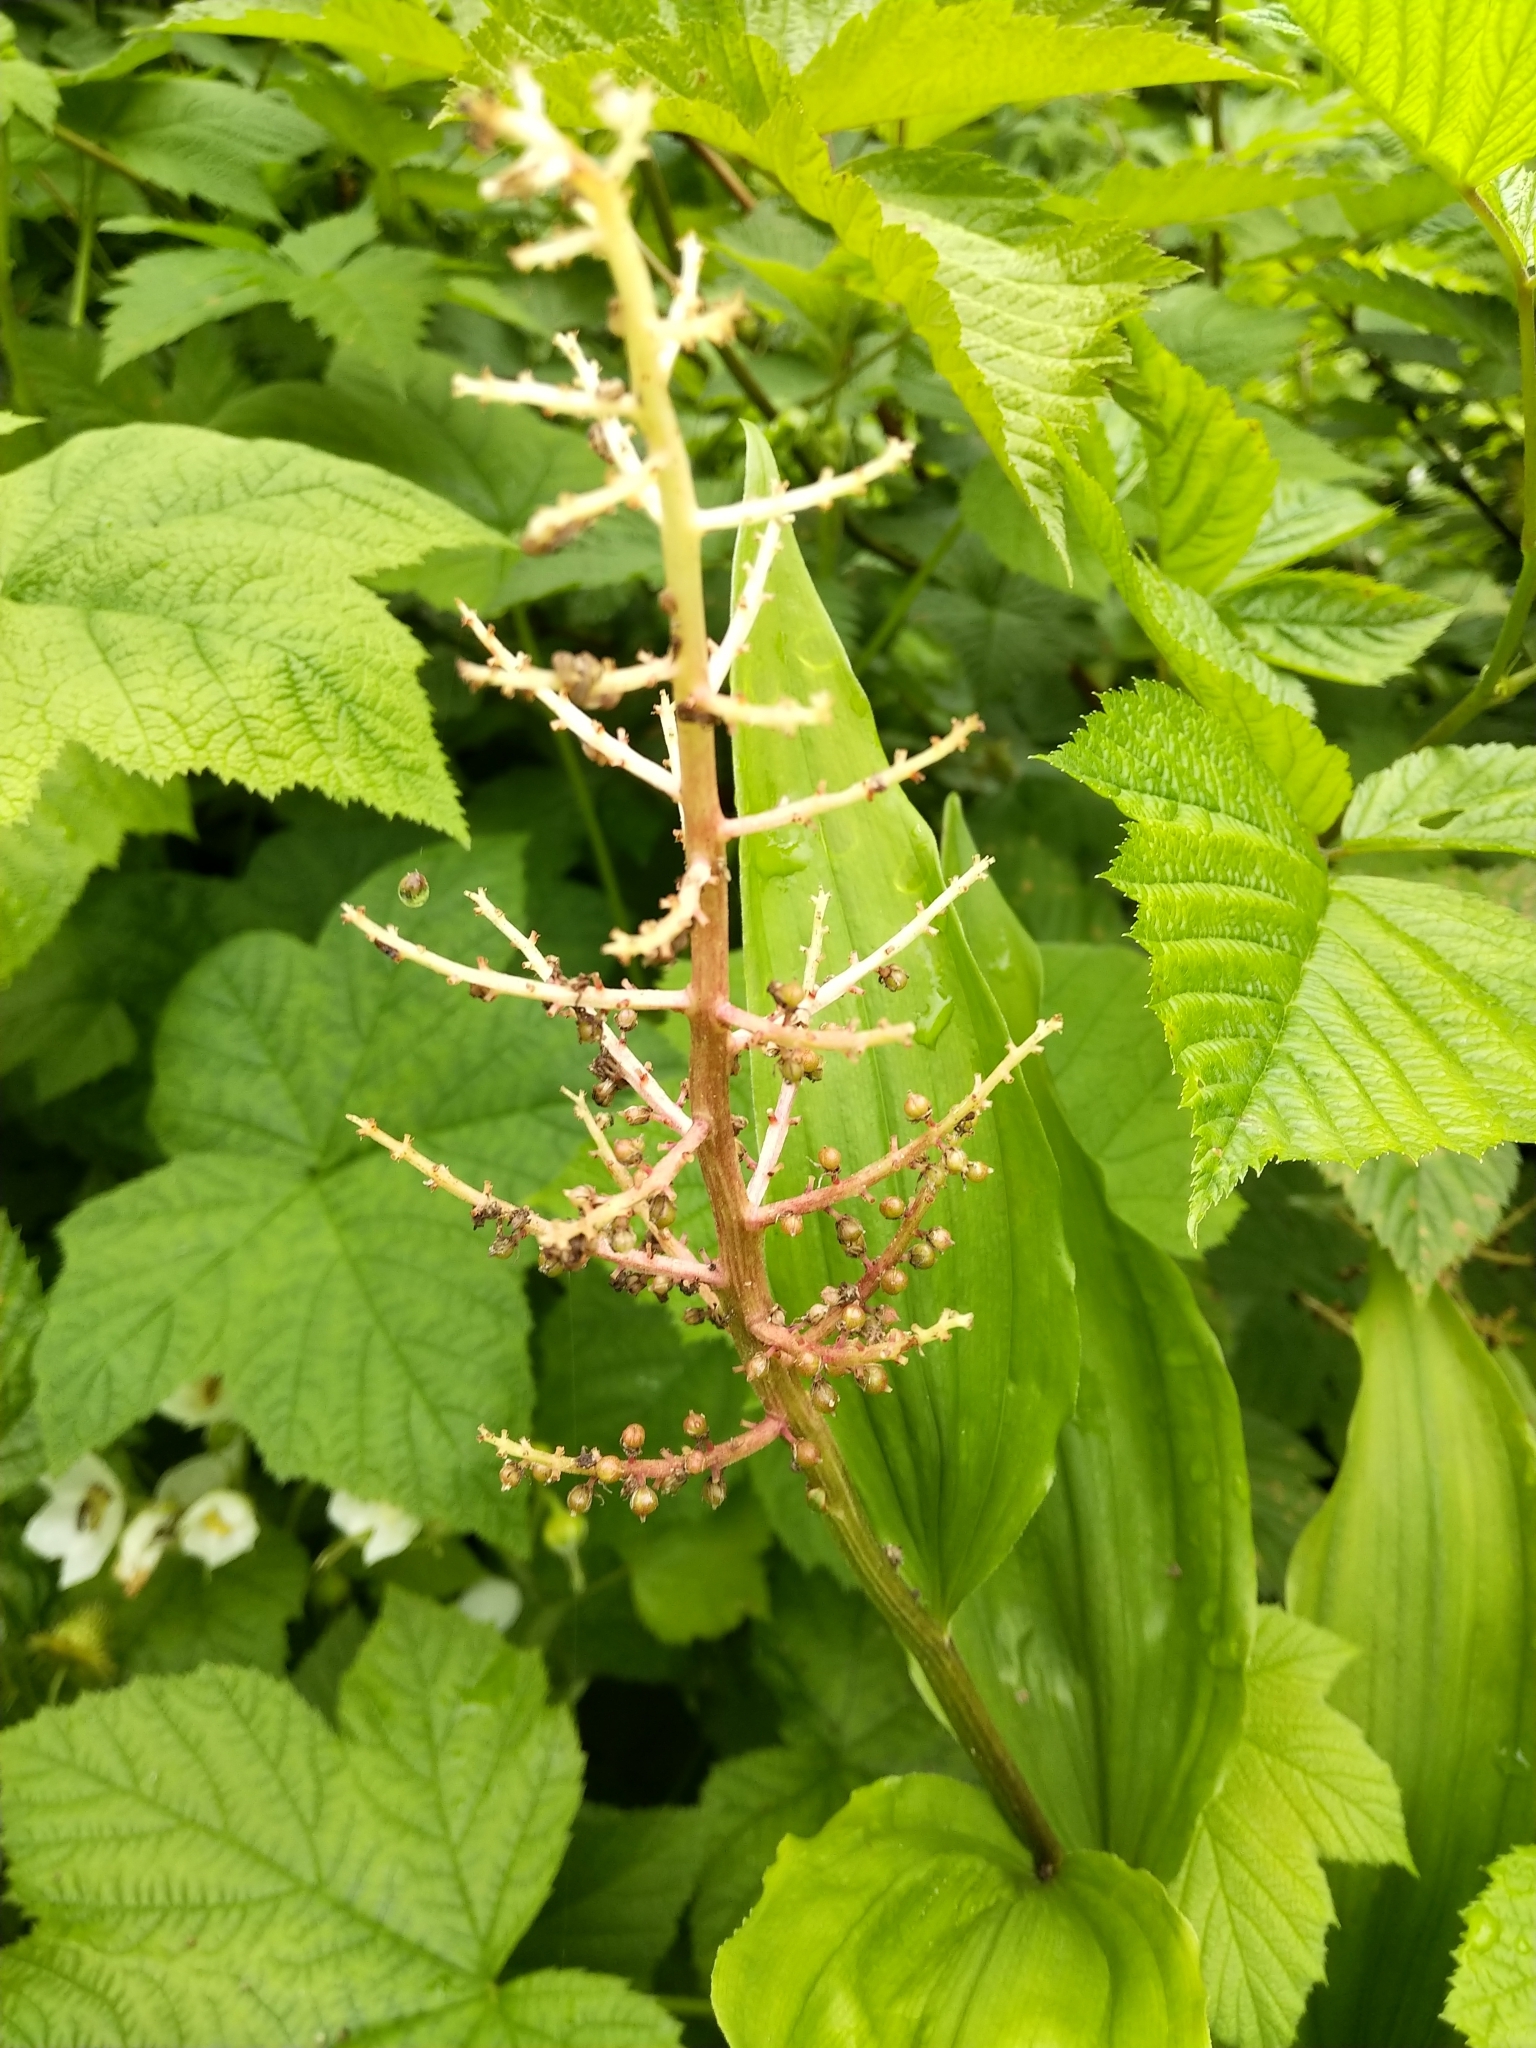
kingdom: Plantae
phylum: Tracheophyta
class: Liliopsida
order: Asparagales
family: Asparagaceae
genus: Maianthemum
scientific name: Maianthemum racemosum
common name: False spikenard
